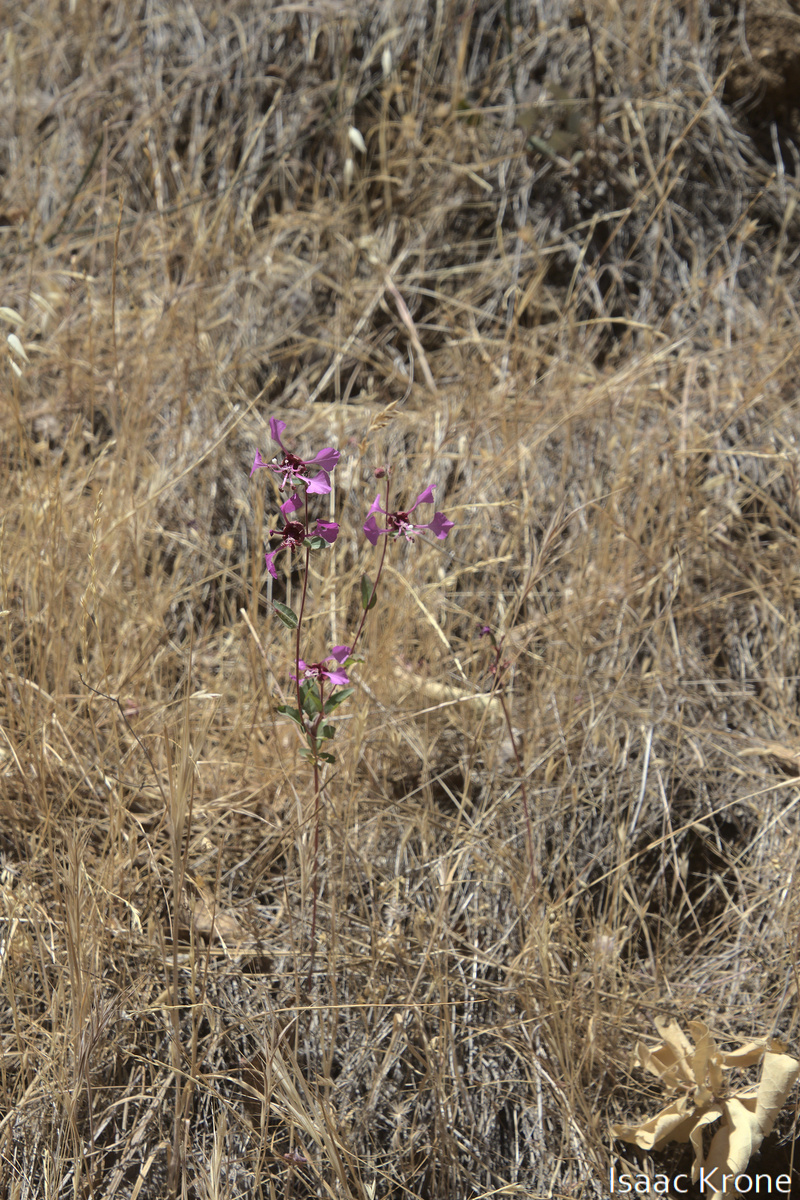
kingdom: Plantae
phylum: Tracheophyta
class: Magnoliopsida
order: Myrtales
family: Onagraceae
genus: Clarkia
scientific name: Clarkia unguiculata
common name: Clarkia
